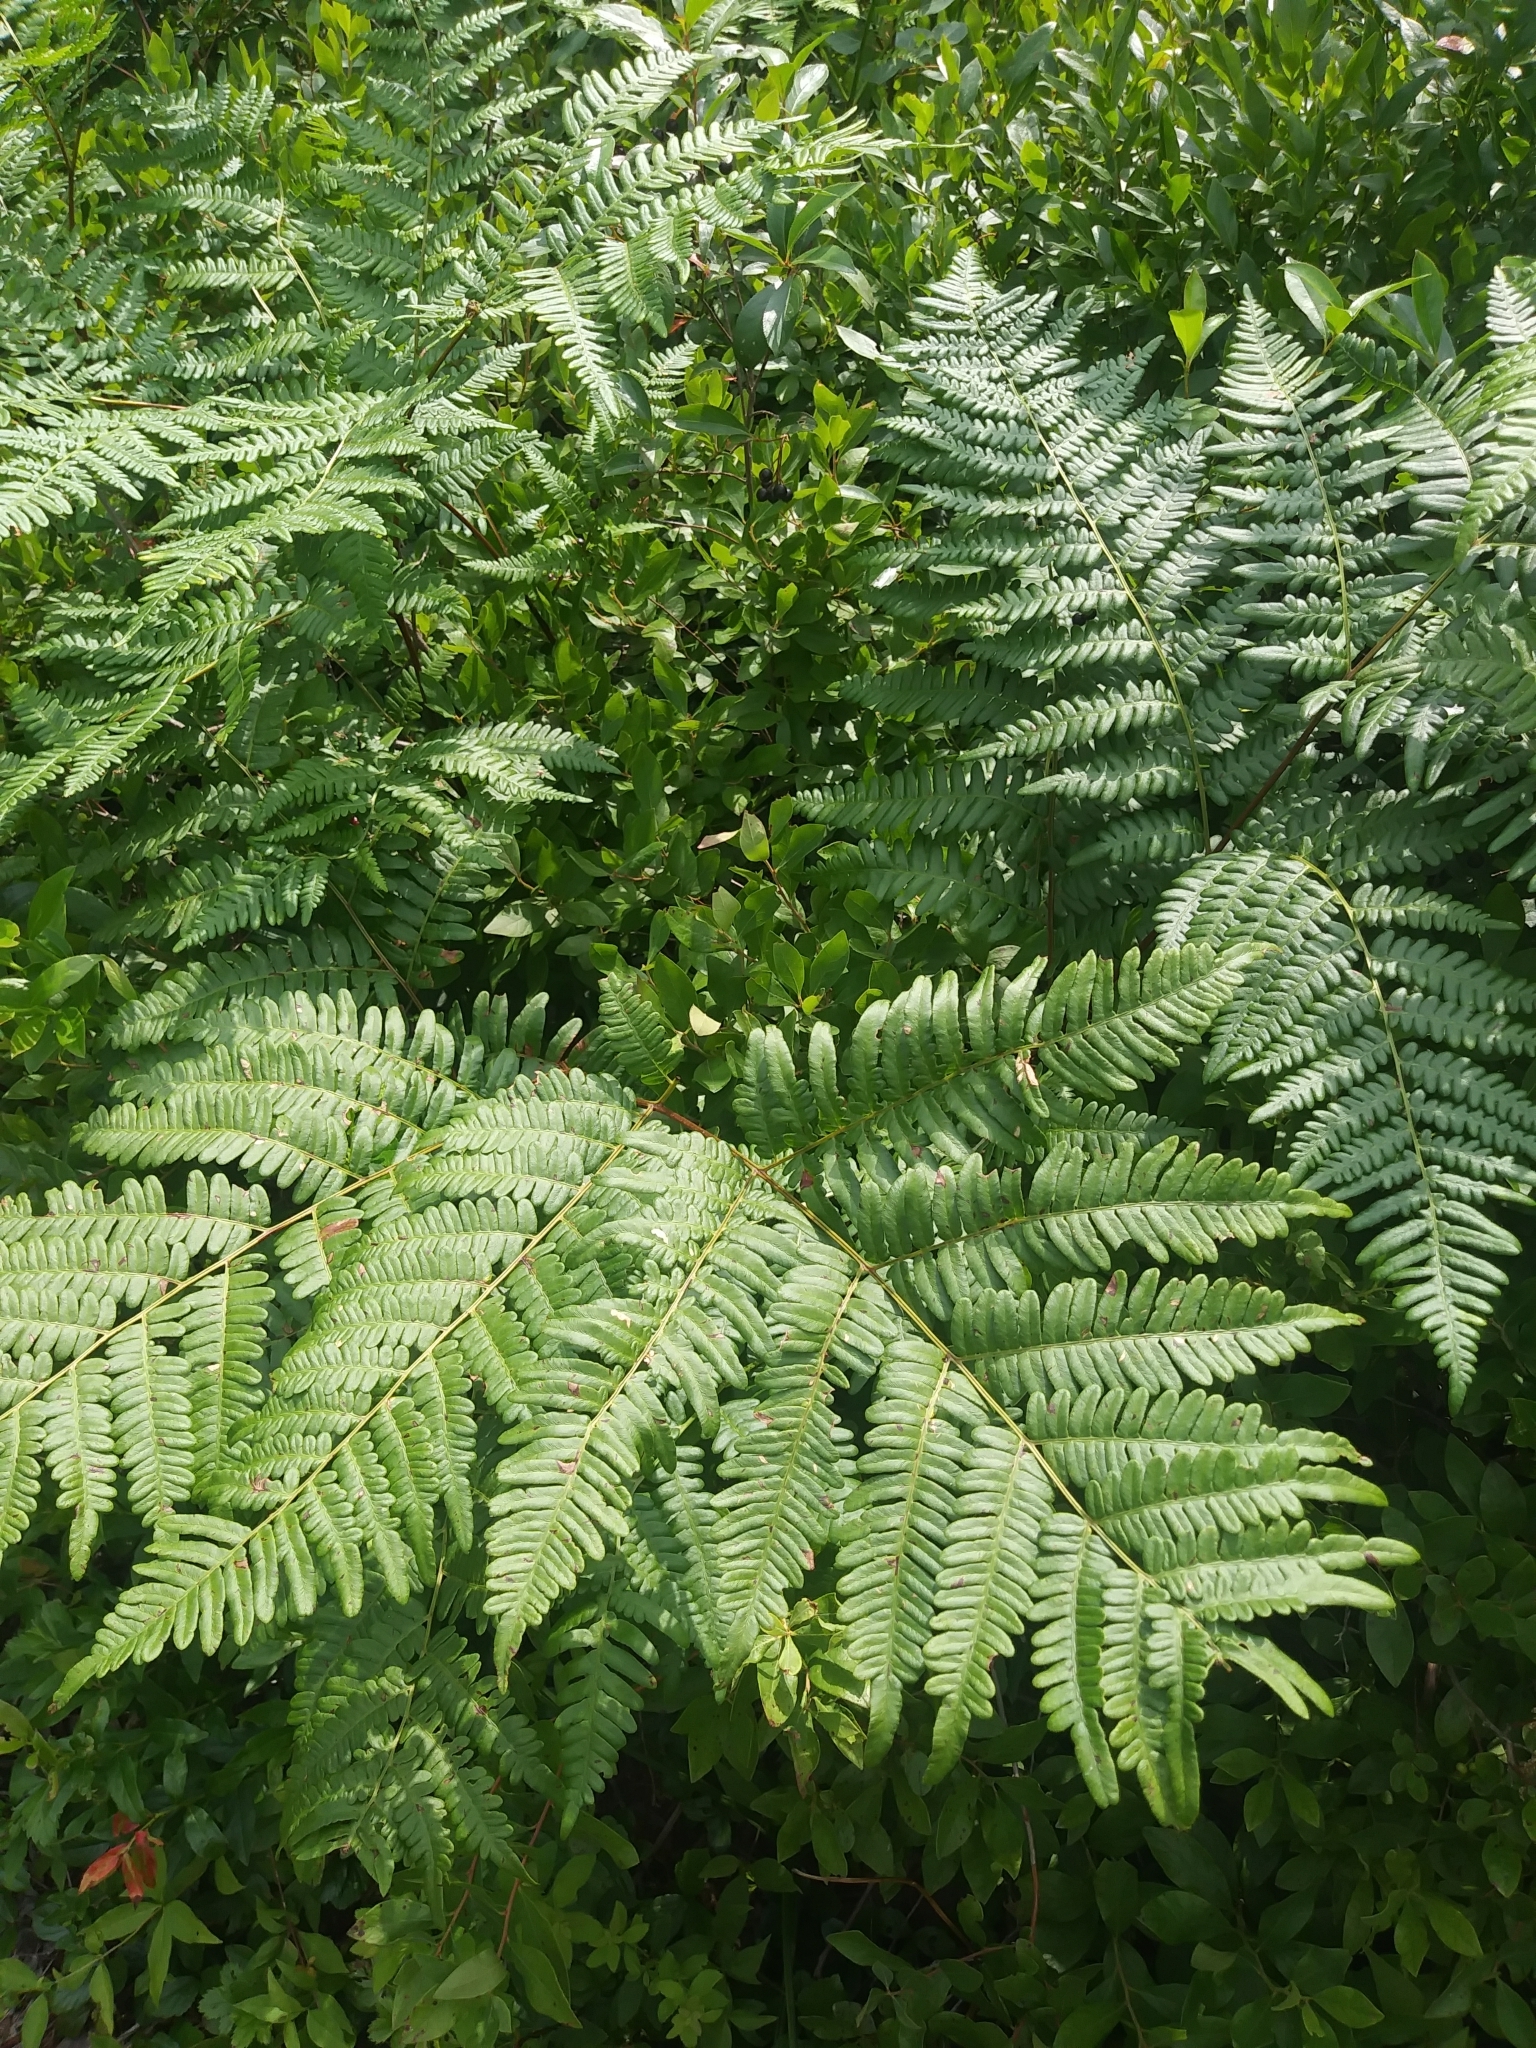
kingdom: Plantae
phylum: Tracheophyta
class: Polypodiopsida
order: Polypodiales
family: Dennstaedtiaceae
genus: Pteridium
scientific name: Pteridium aquilinum
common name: Bracken
